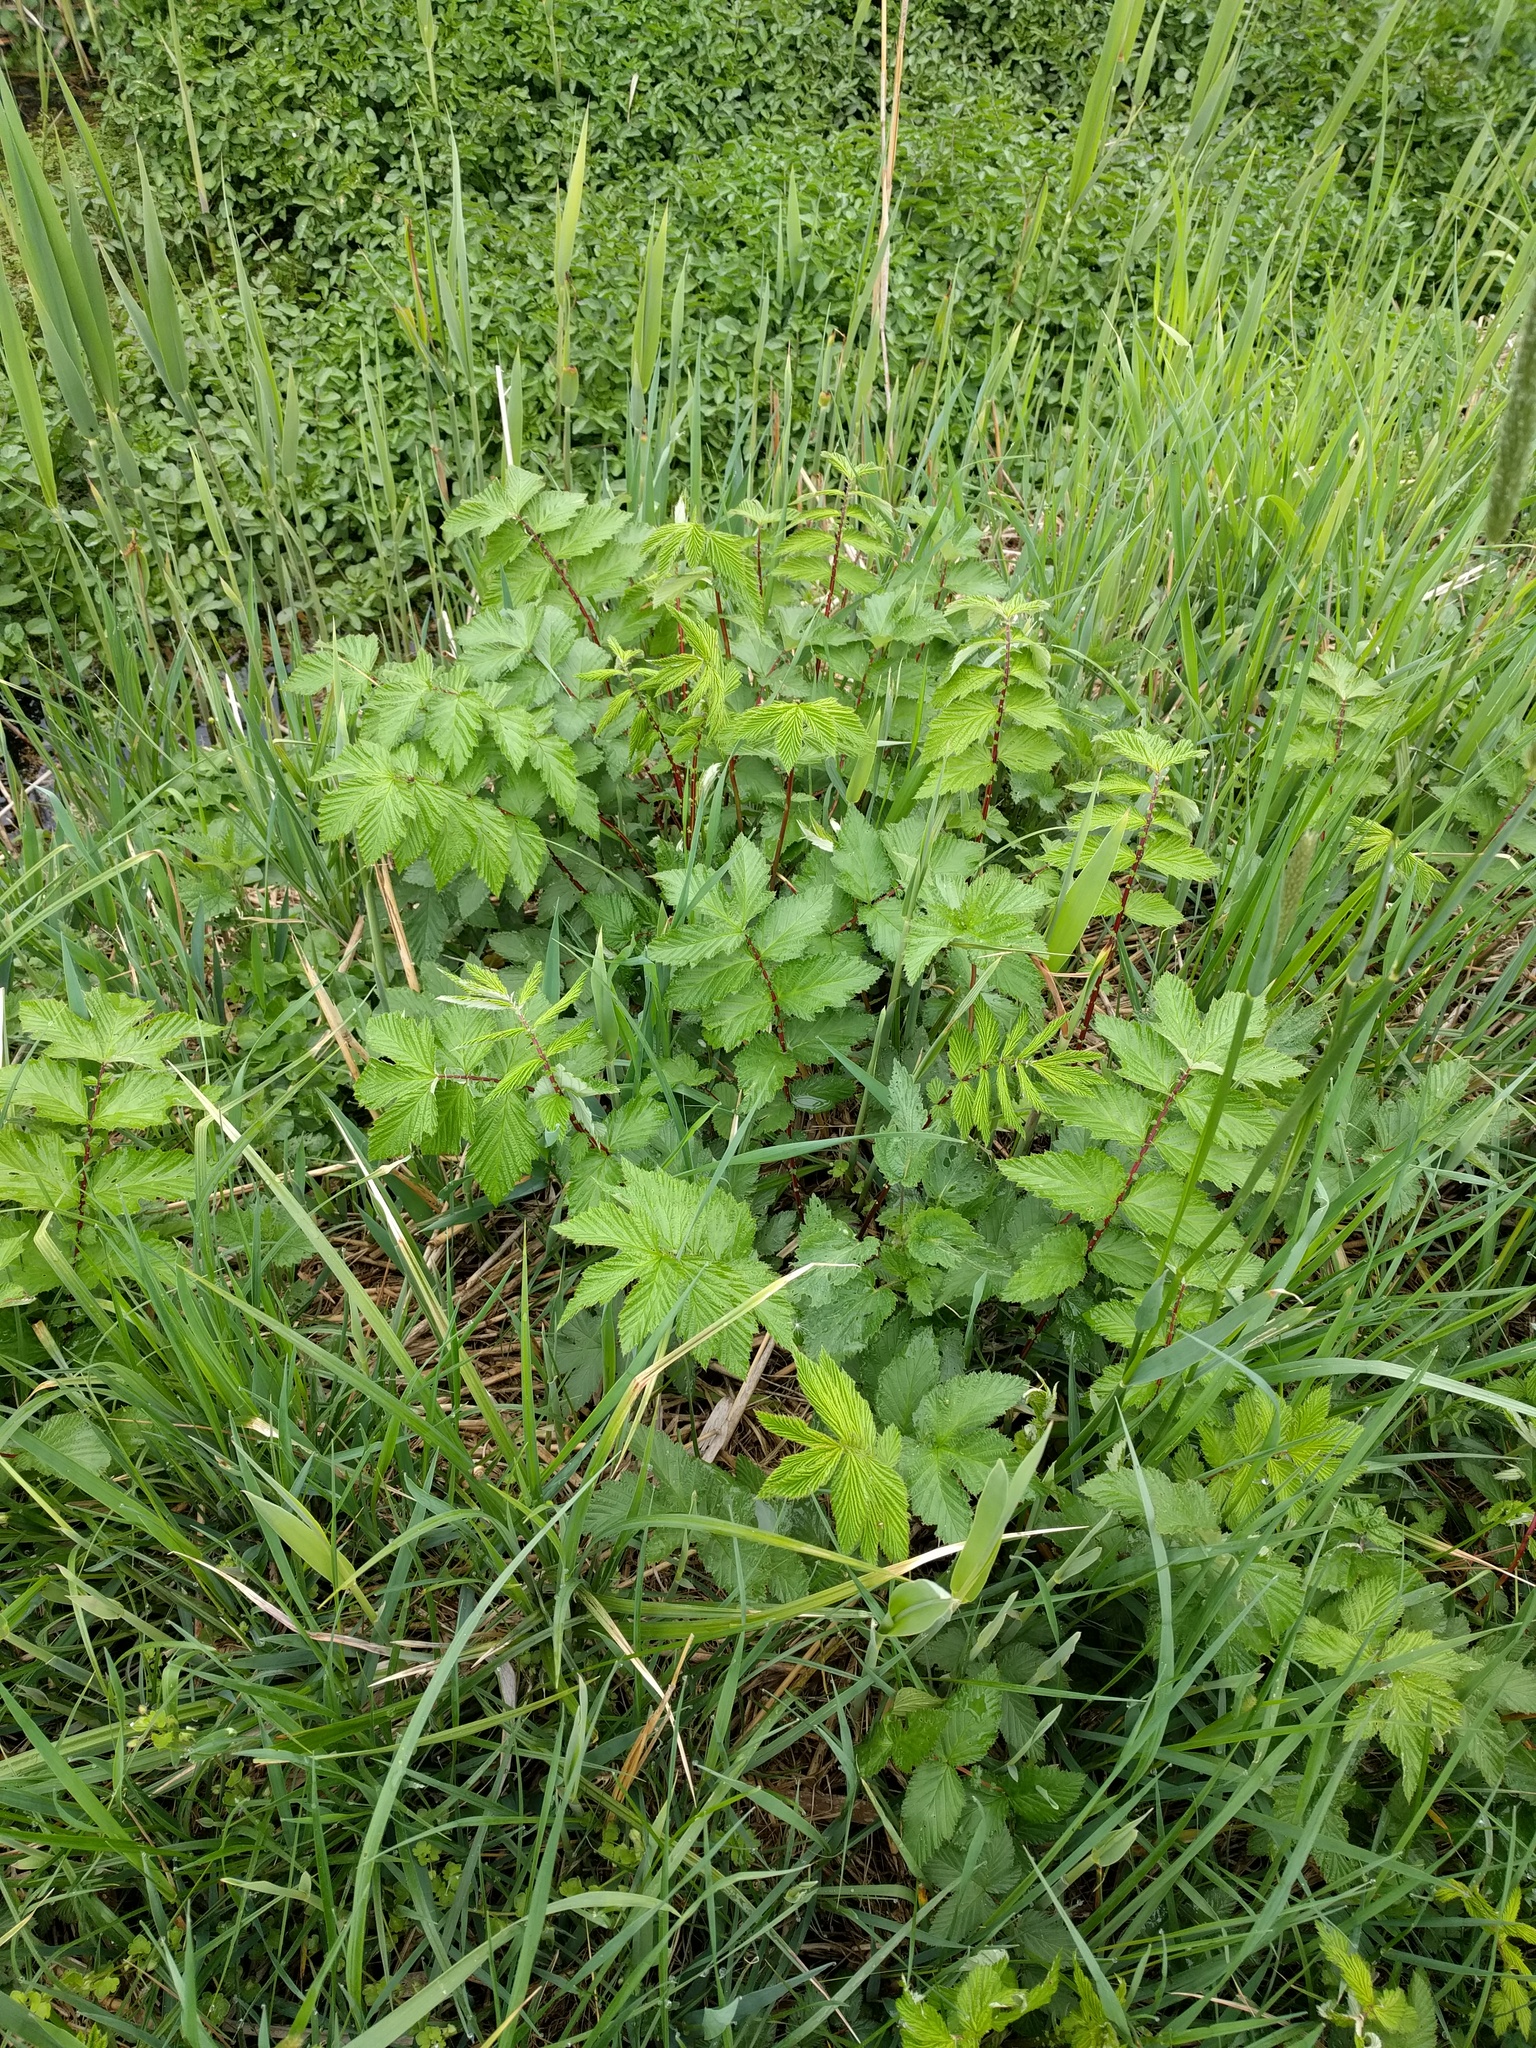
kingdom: Plantae
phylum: Tracheophyta
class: Magnoliopsida
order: Rosales
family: Rosaceae
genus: Filipendula
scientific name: Filipendula ulmaria
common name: Meadowsweet
